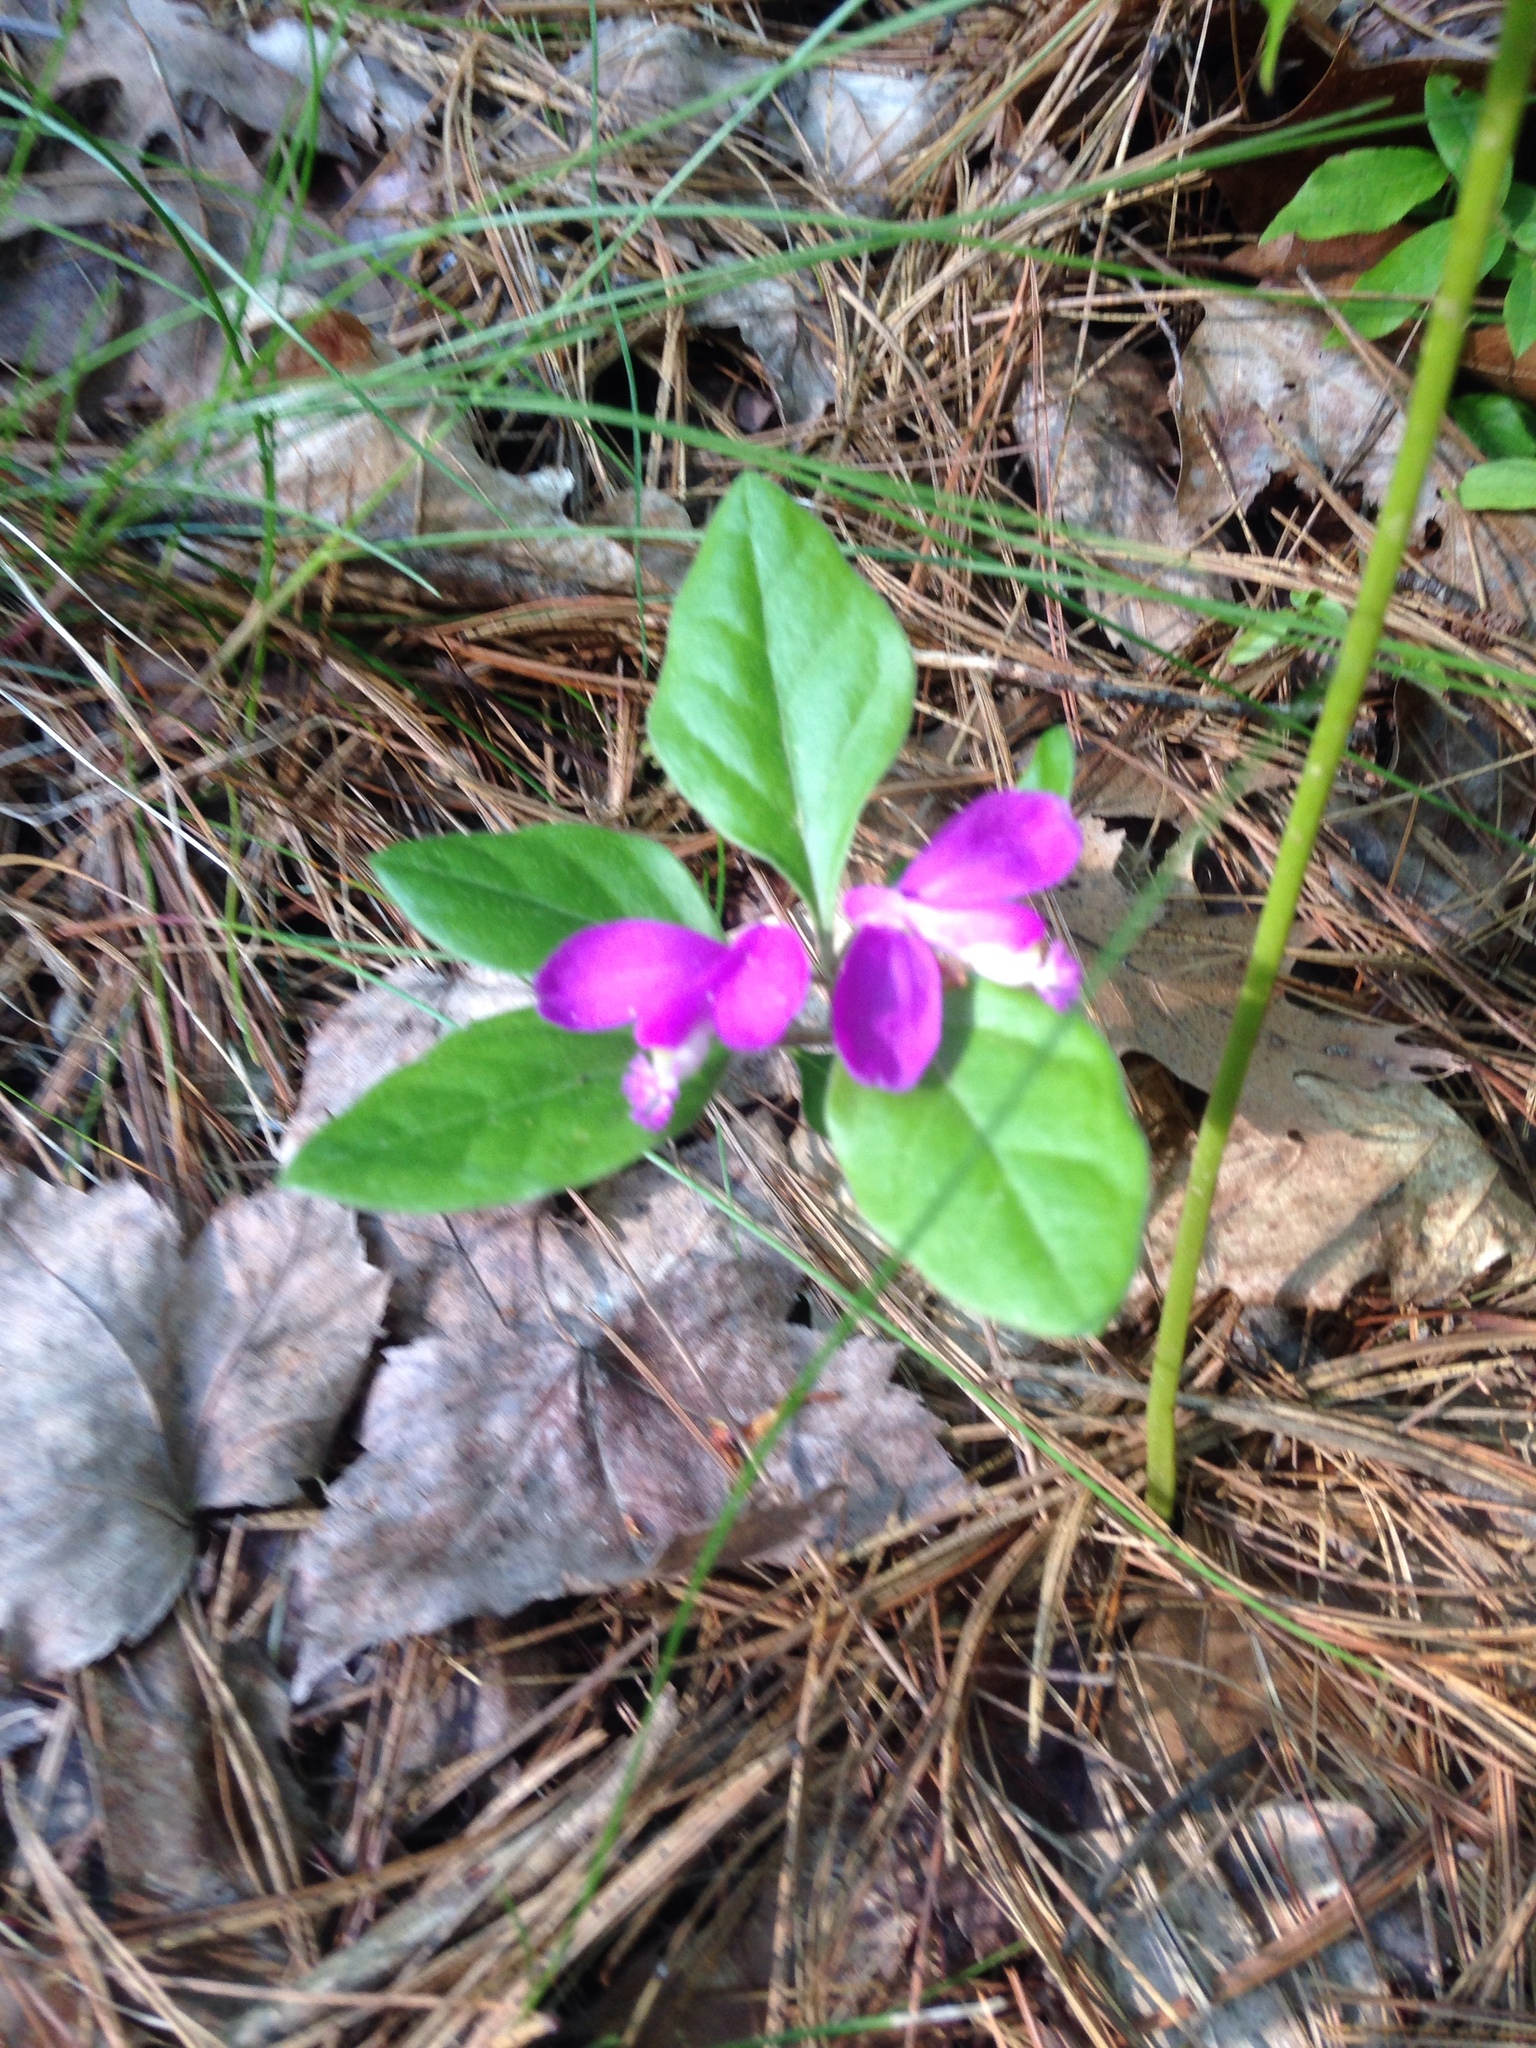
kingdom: Plantae
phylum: Tracheophyta
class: Magnoliopsida
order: Fabales
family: Polygalaceae
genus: Polygaloides
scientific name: Polygaloides paucifolia
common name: Bird-on-the-wing
